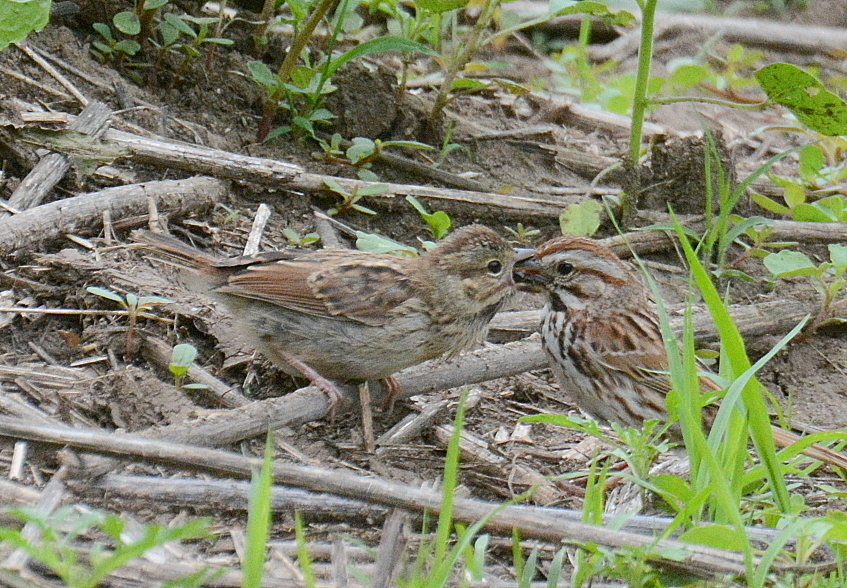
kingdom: Animalia
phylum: Chordata
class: Aves
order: Passeriformes
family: Passerellidae
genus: Melospiza
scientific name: Melospiza melodia
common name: Song sparrow
